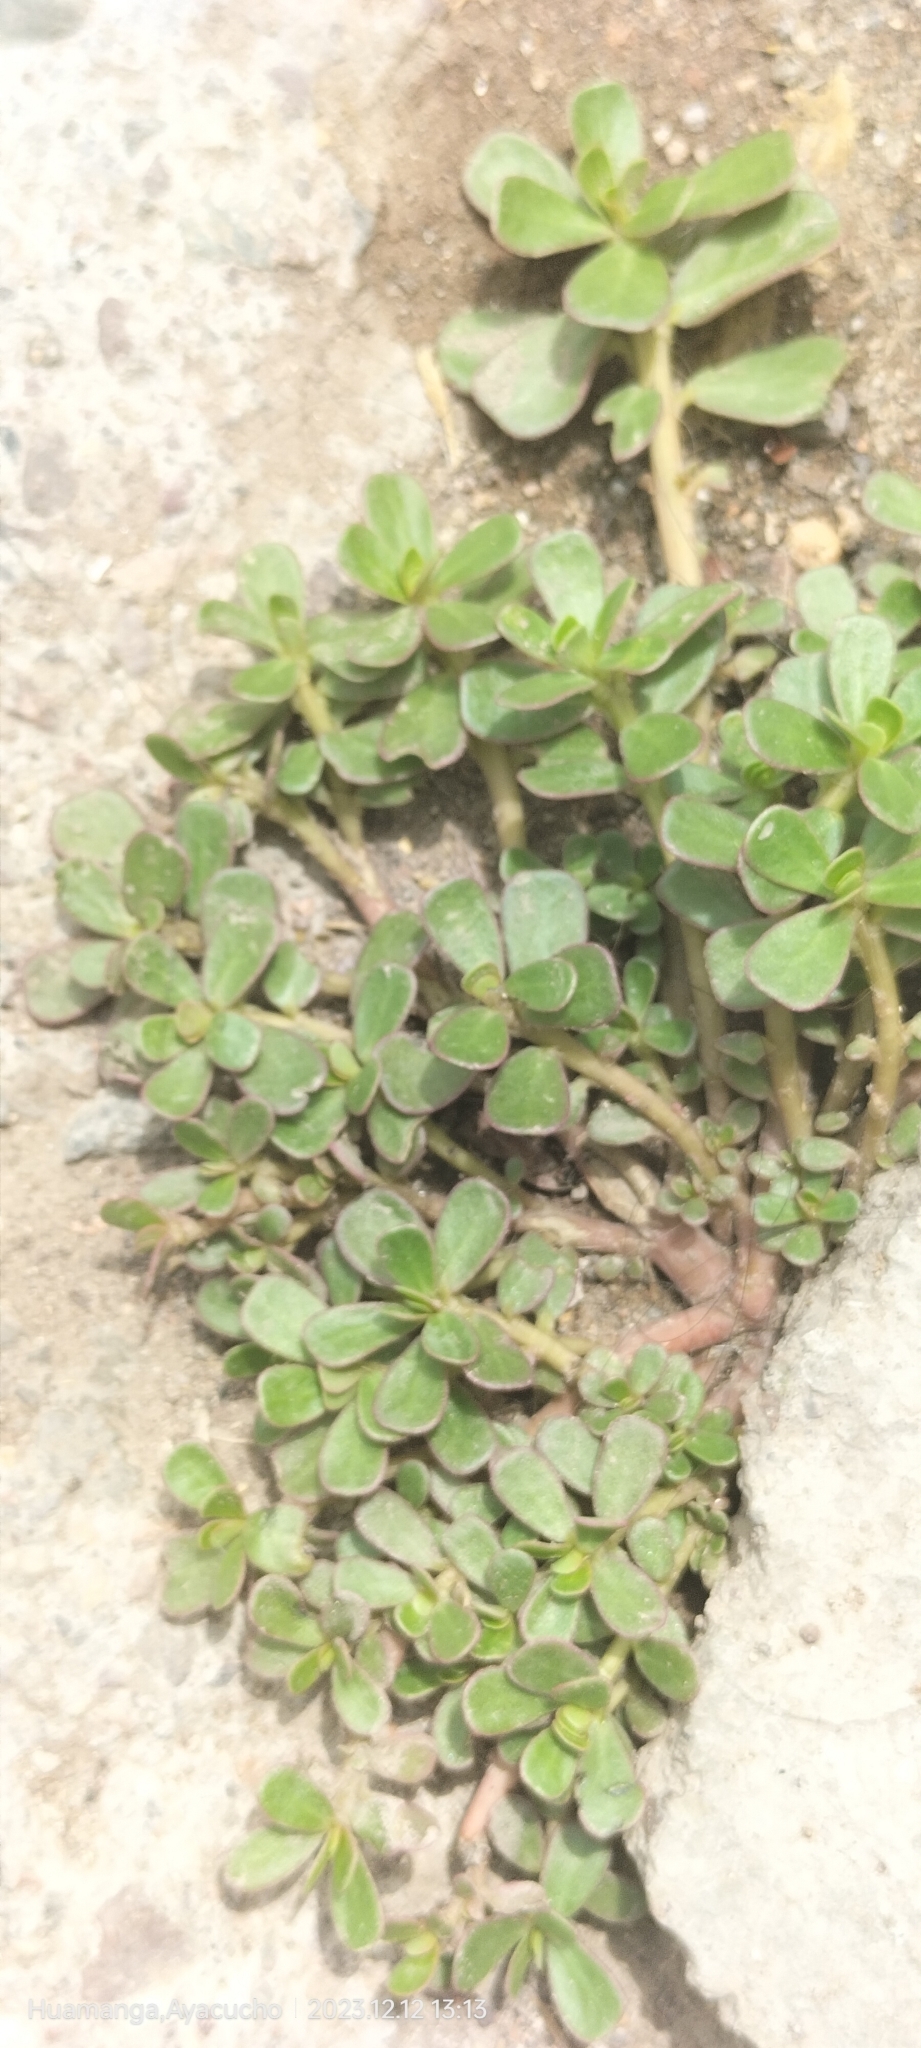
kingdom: Plantae
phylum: Tracheophyta
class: Magnoliopsida
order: Caryophyllales
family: Portulacaceae
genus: Portulaca
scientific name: Portulaca oleracea
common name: Common purslane
